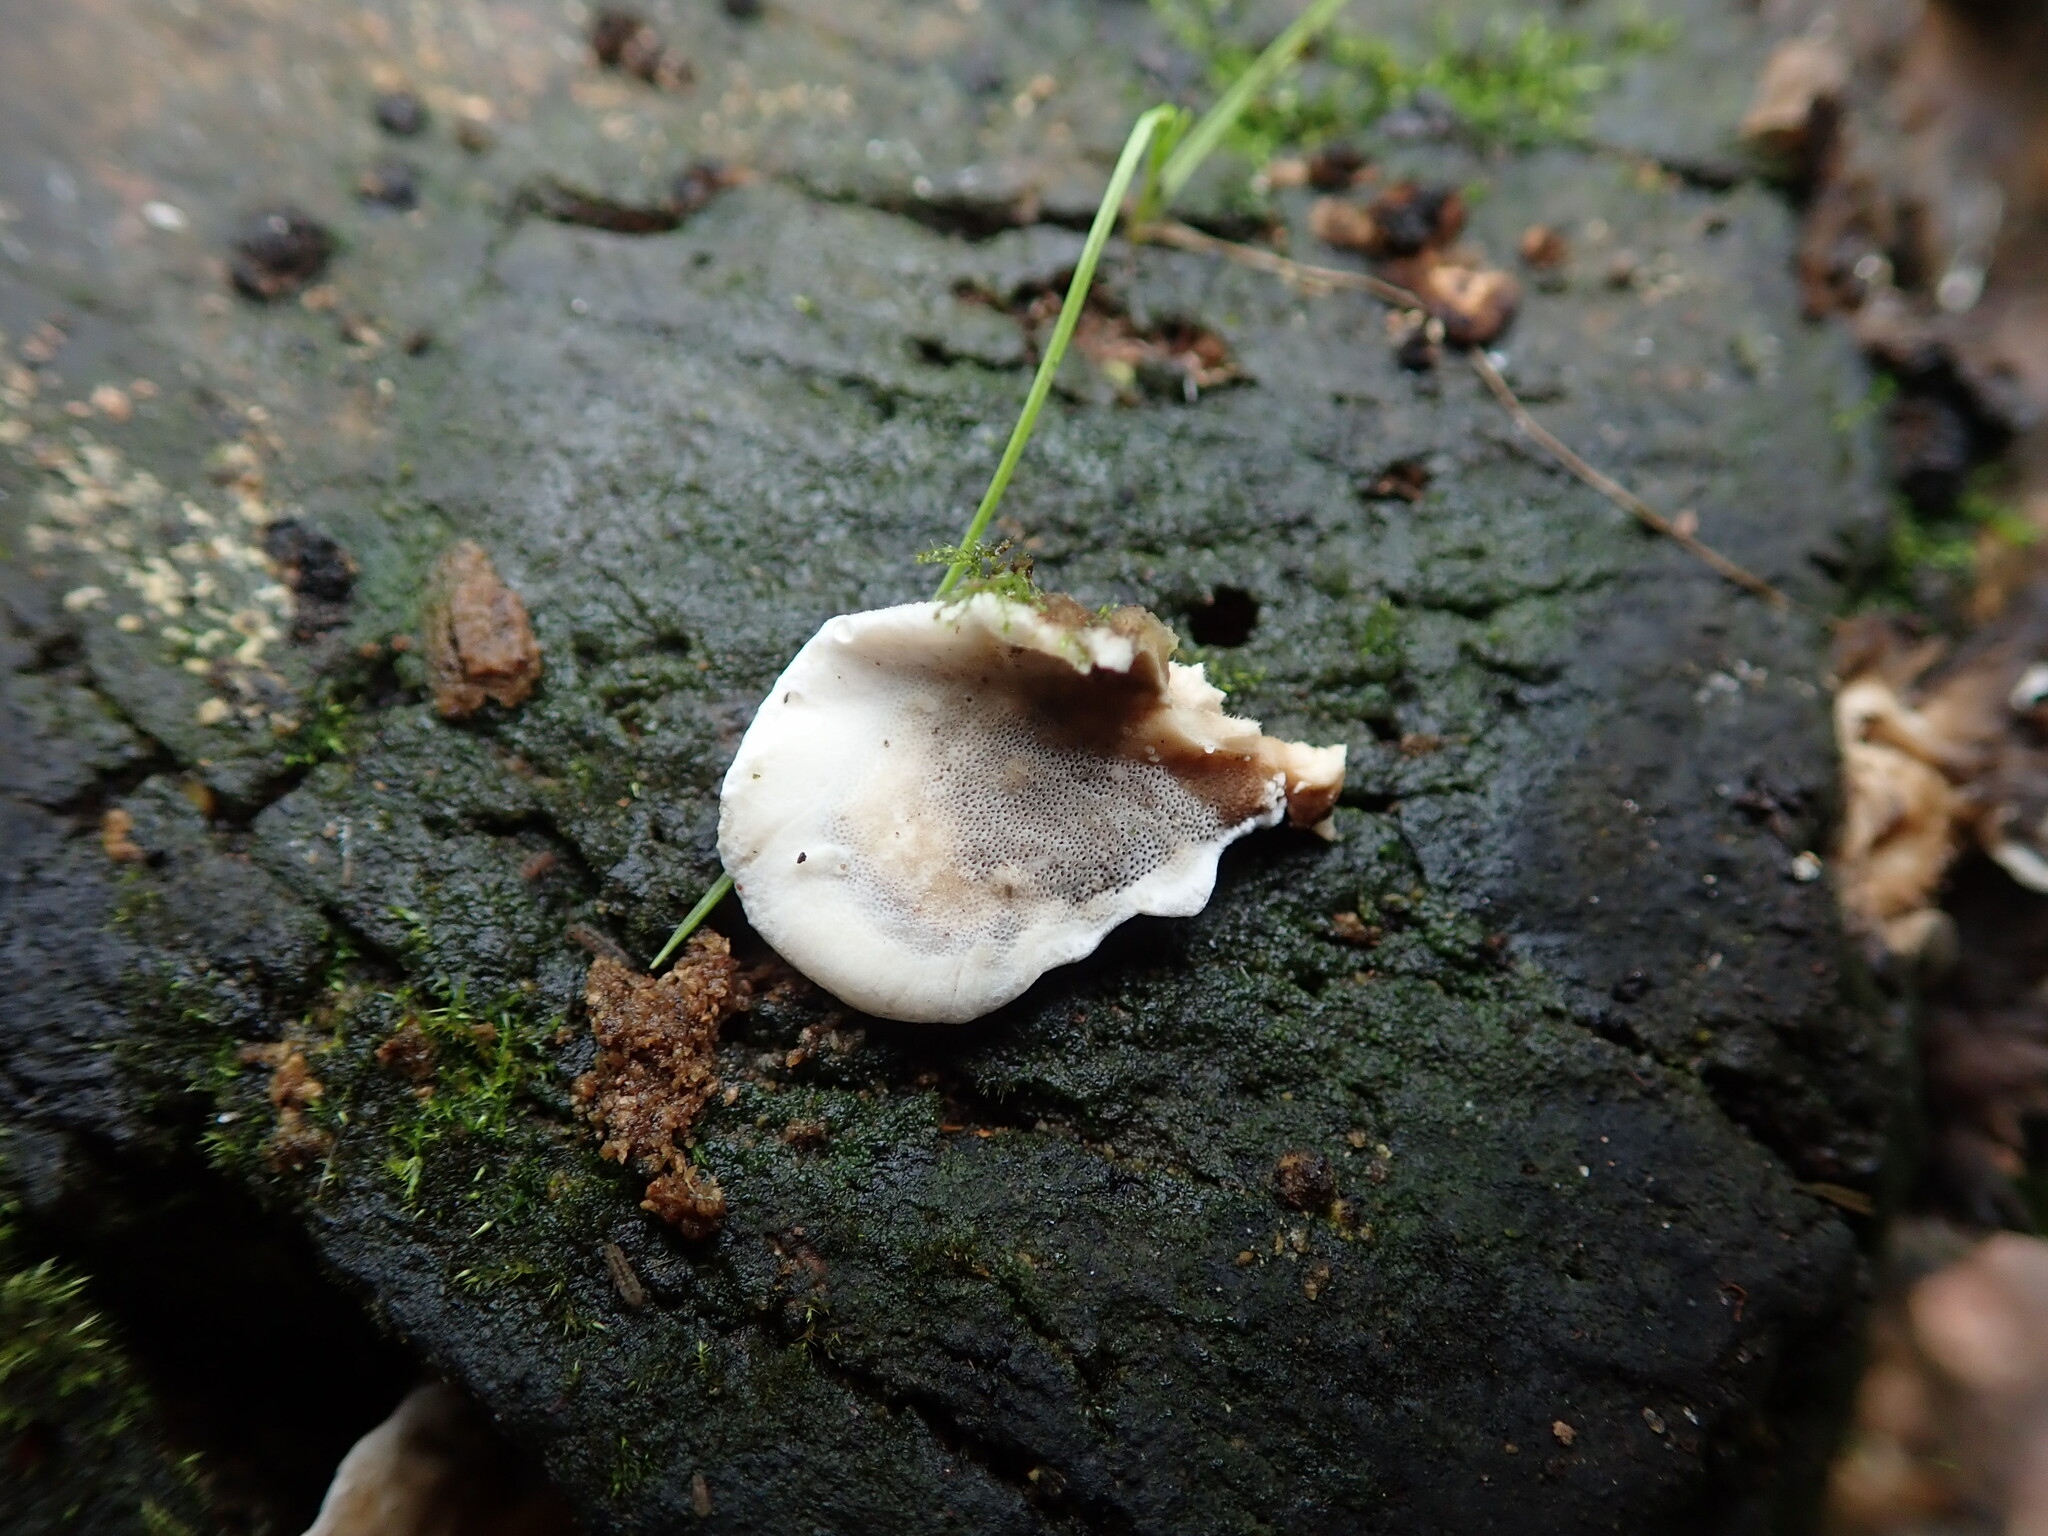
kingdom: Fungi
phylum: Basidiomycota
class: Agaricomycetes
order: Polyporales
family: Phanerochaetaceae
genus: Bjerkandera
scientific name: Bjerkandera adusta
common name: Smoky bracket
